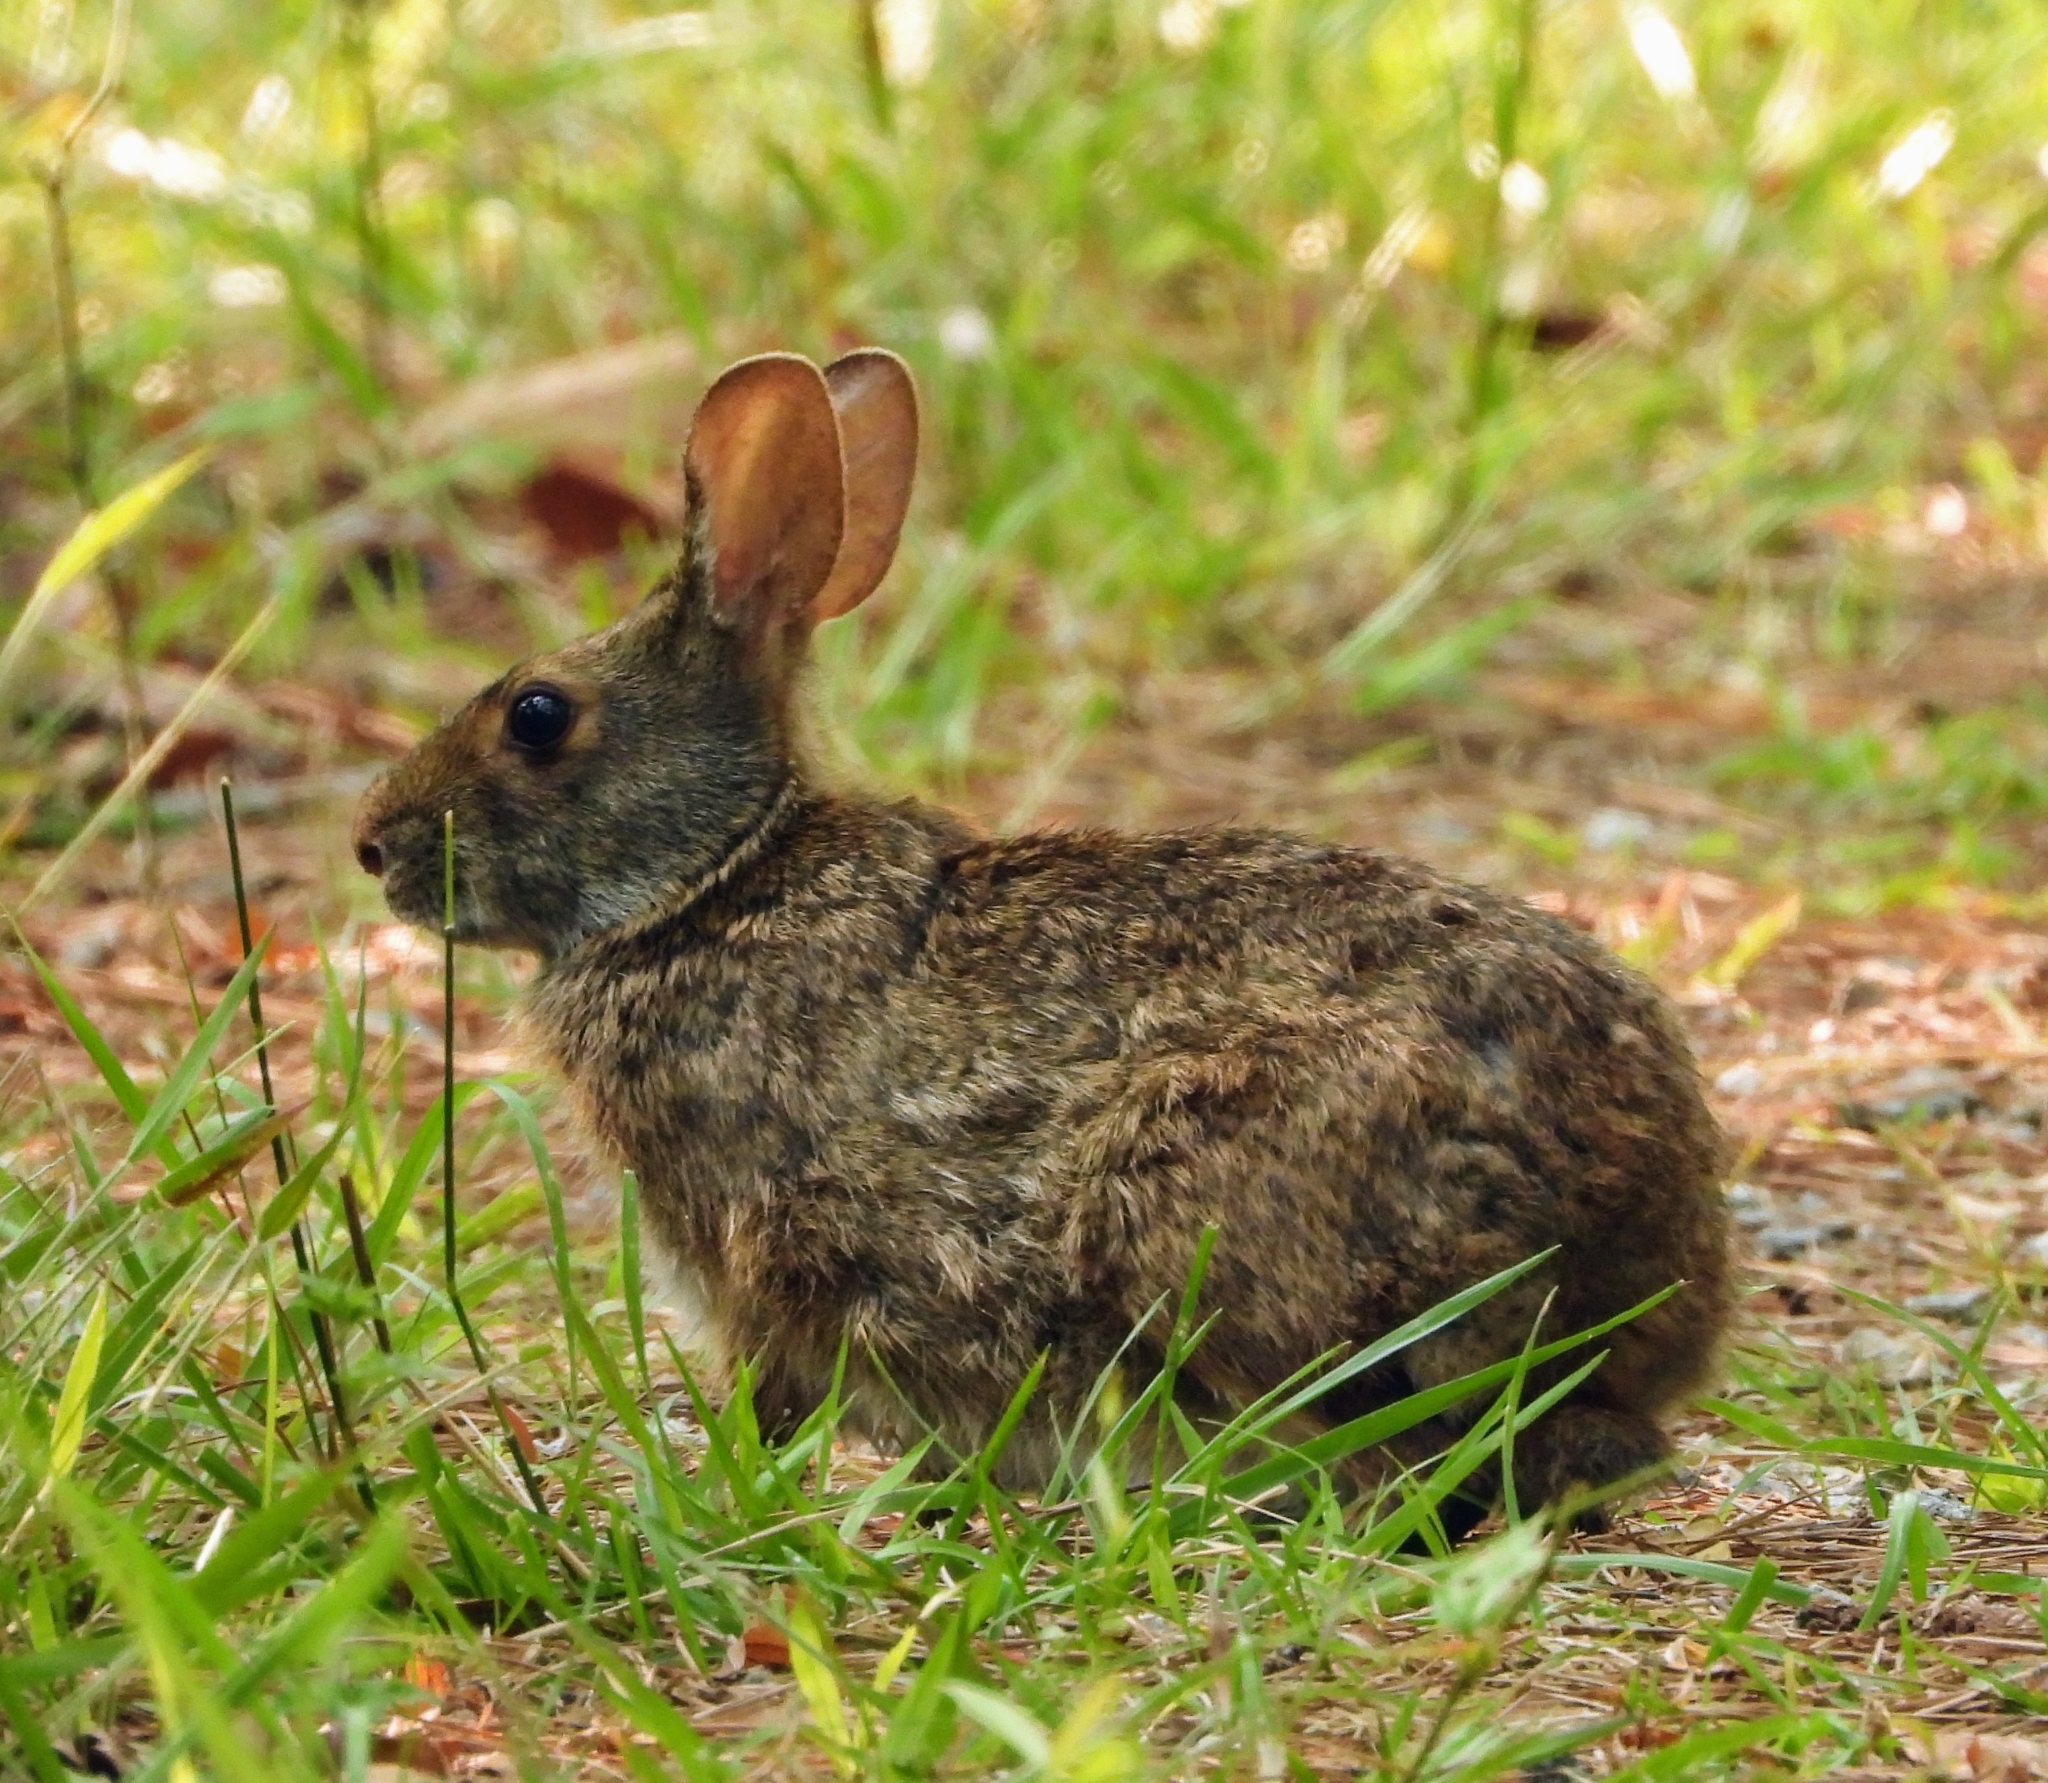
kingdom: Animalia
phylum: Chordata
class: Mammalia
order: Lagomorpha
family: Leporidae
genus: Sylvilagus
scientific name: Sylvilagus palustris
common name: Marsh rabbit
